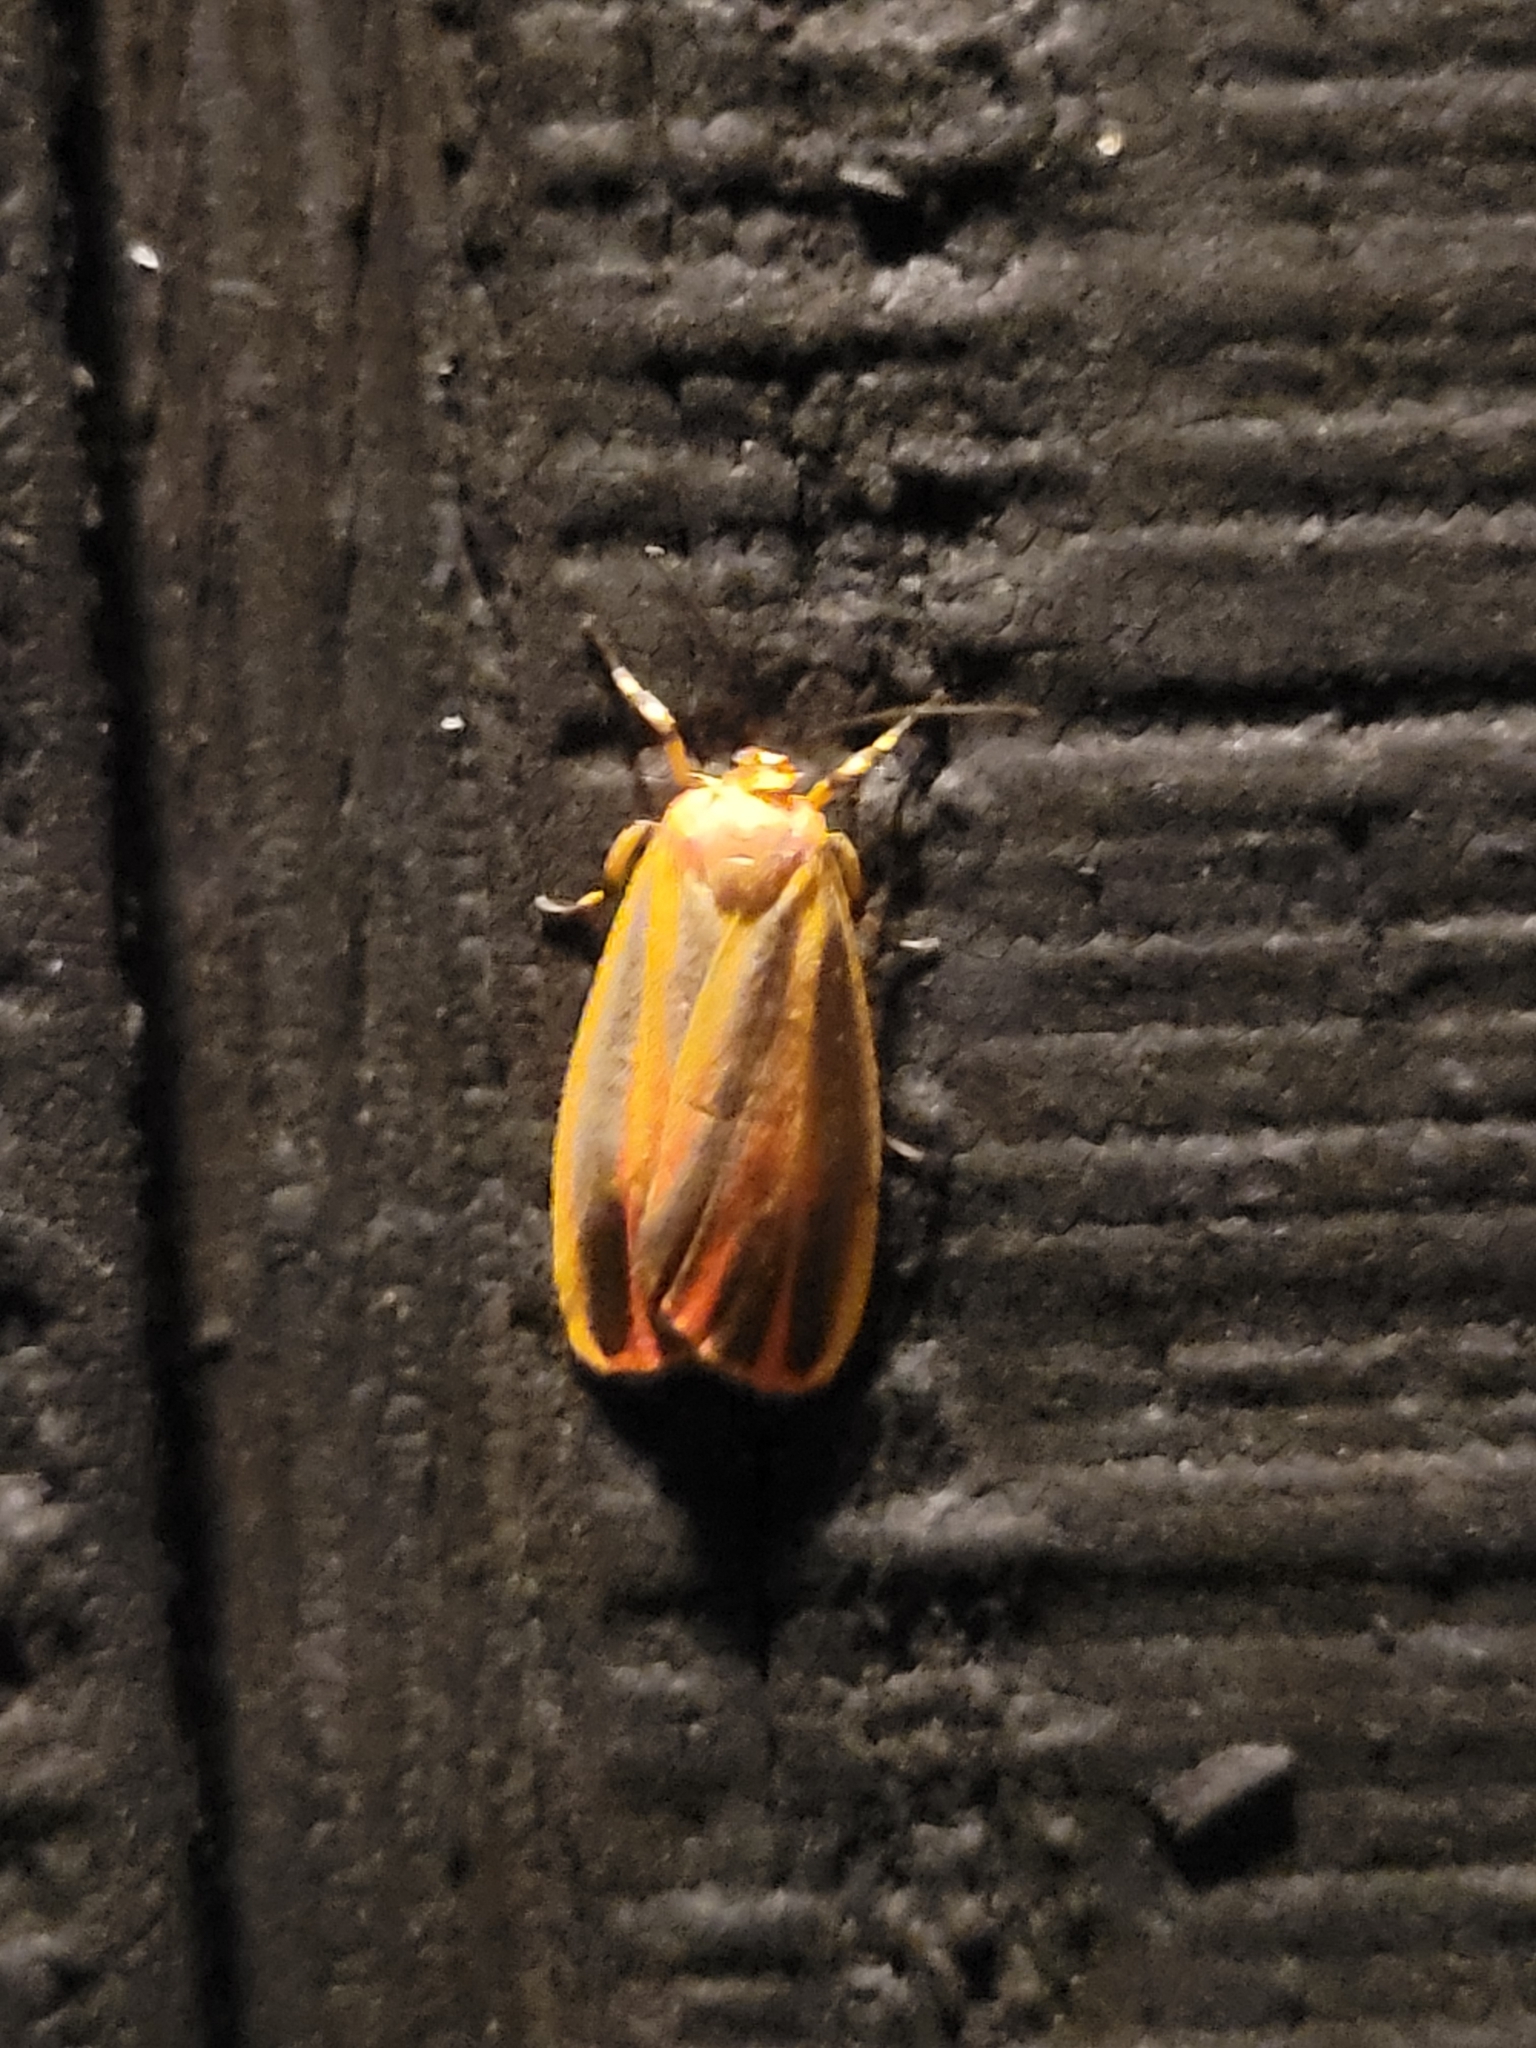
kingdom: Animalia
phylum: Arthropoda
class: Insecta
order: Lepidoptera
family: Erebidae
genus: Hypoprepia
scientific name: Hypoprepia fucosa
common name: Painted lichen moth
